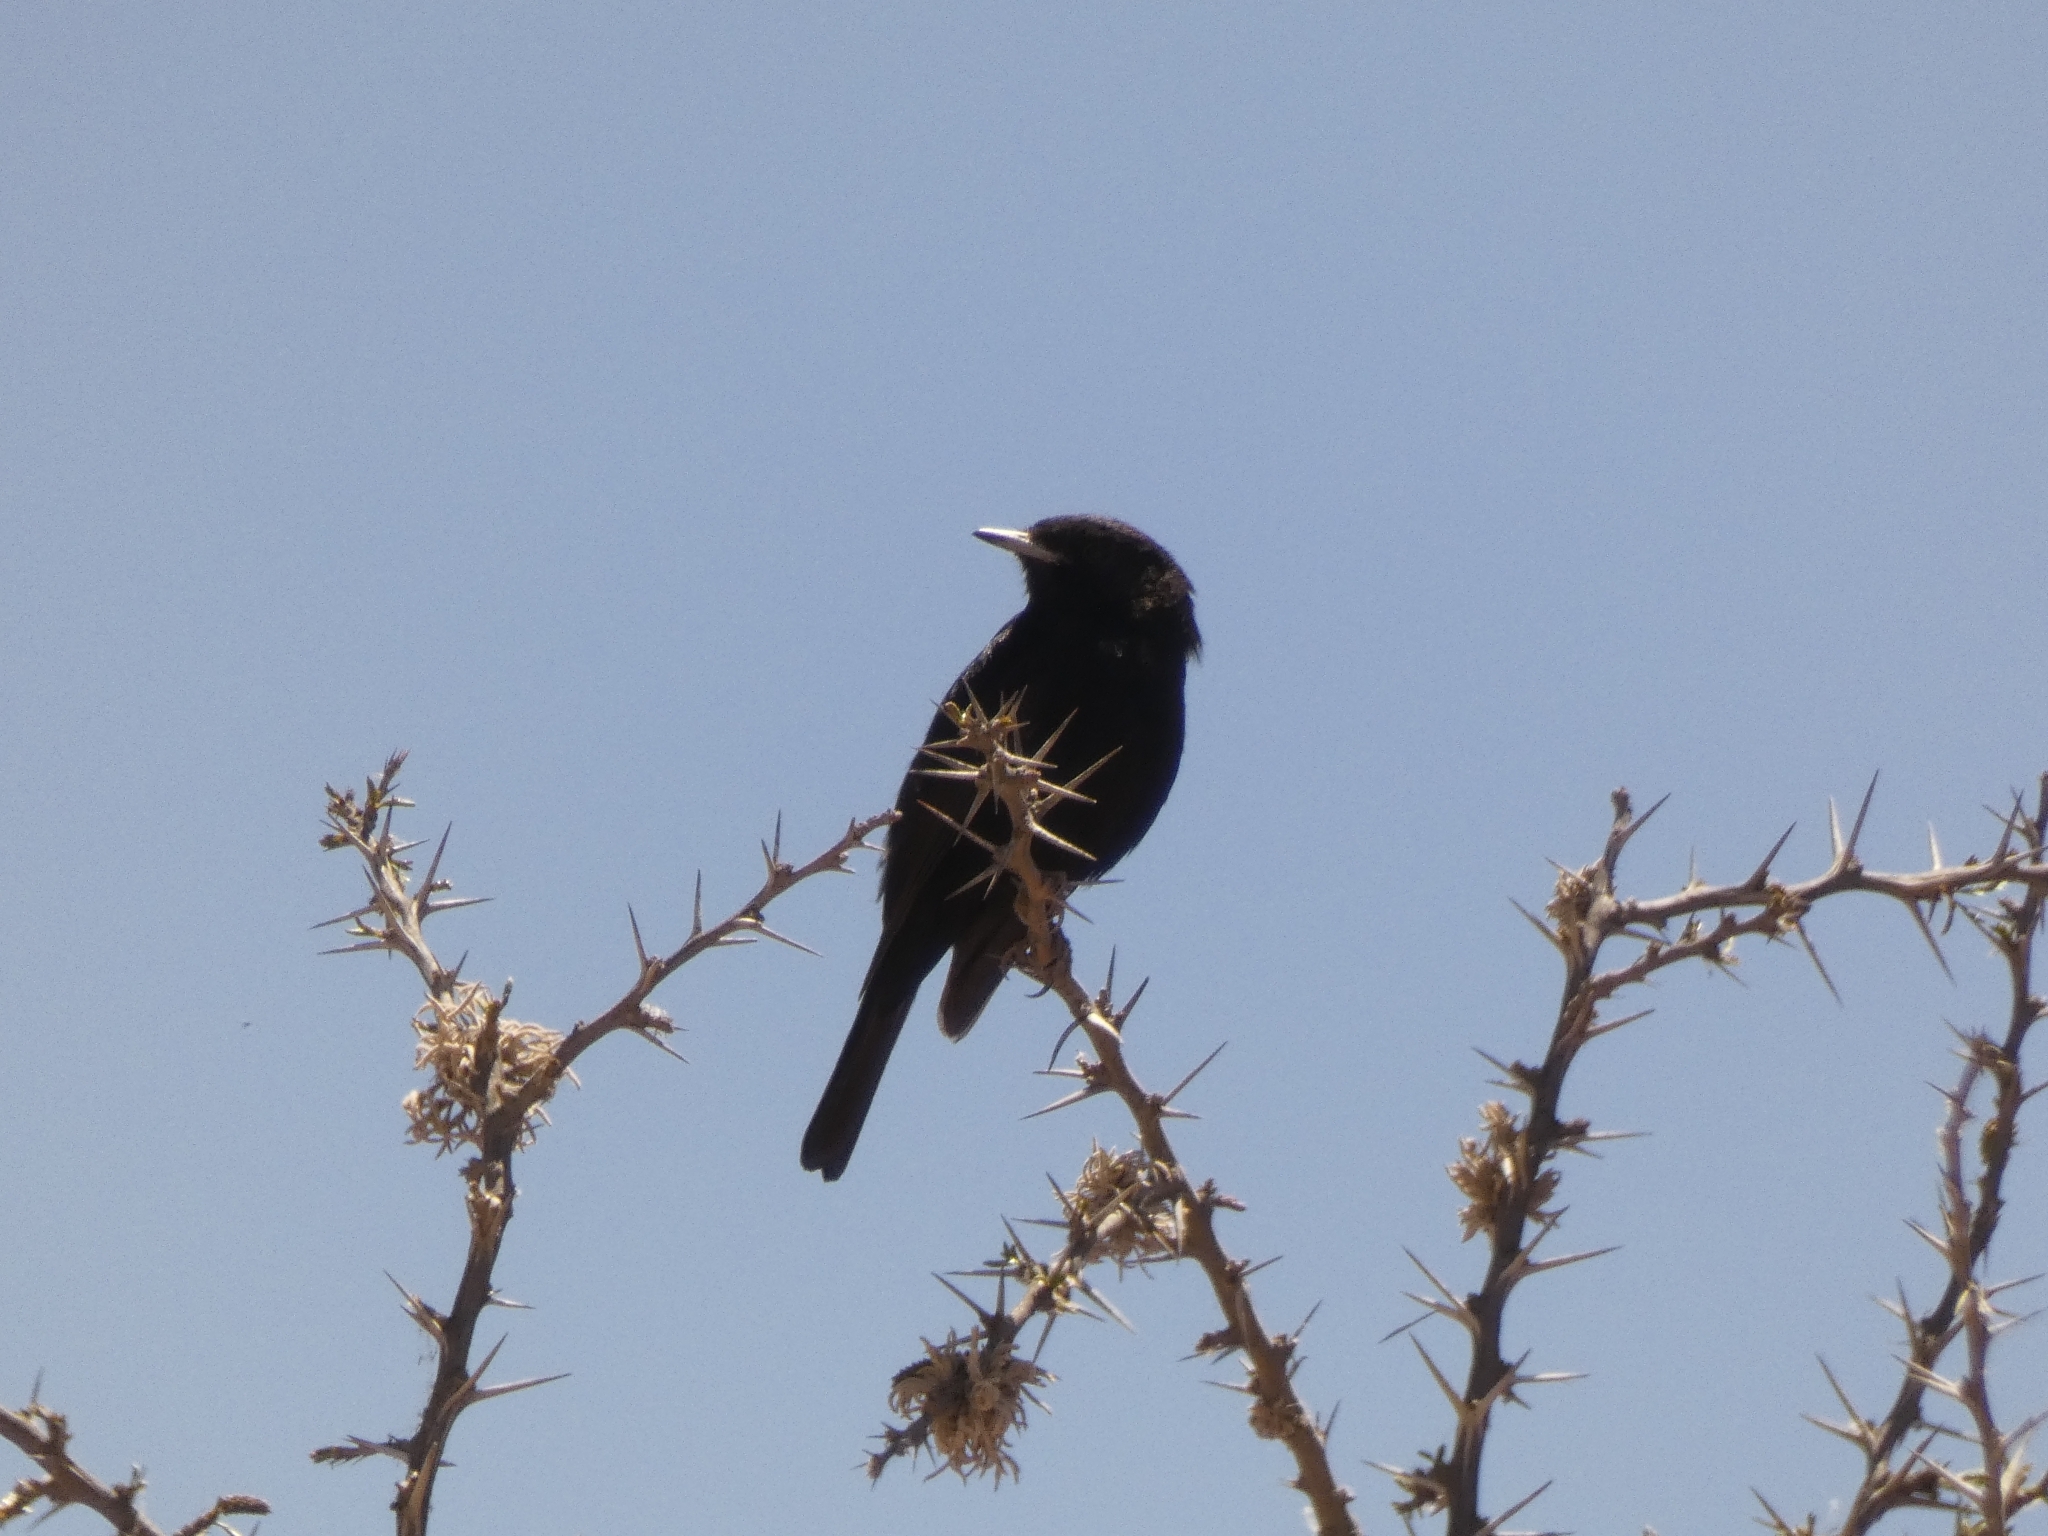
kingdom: Animalia
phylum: Chordata
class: Aves
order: Passeriformes
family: Tyrannidae
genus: Knipolegus
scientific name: Knipolegus aterrimus
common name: White-winged black tyrant
